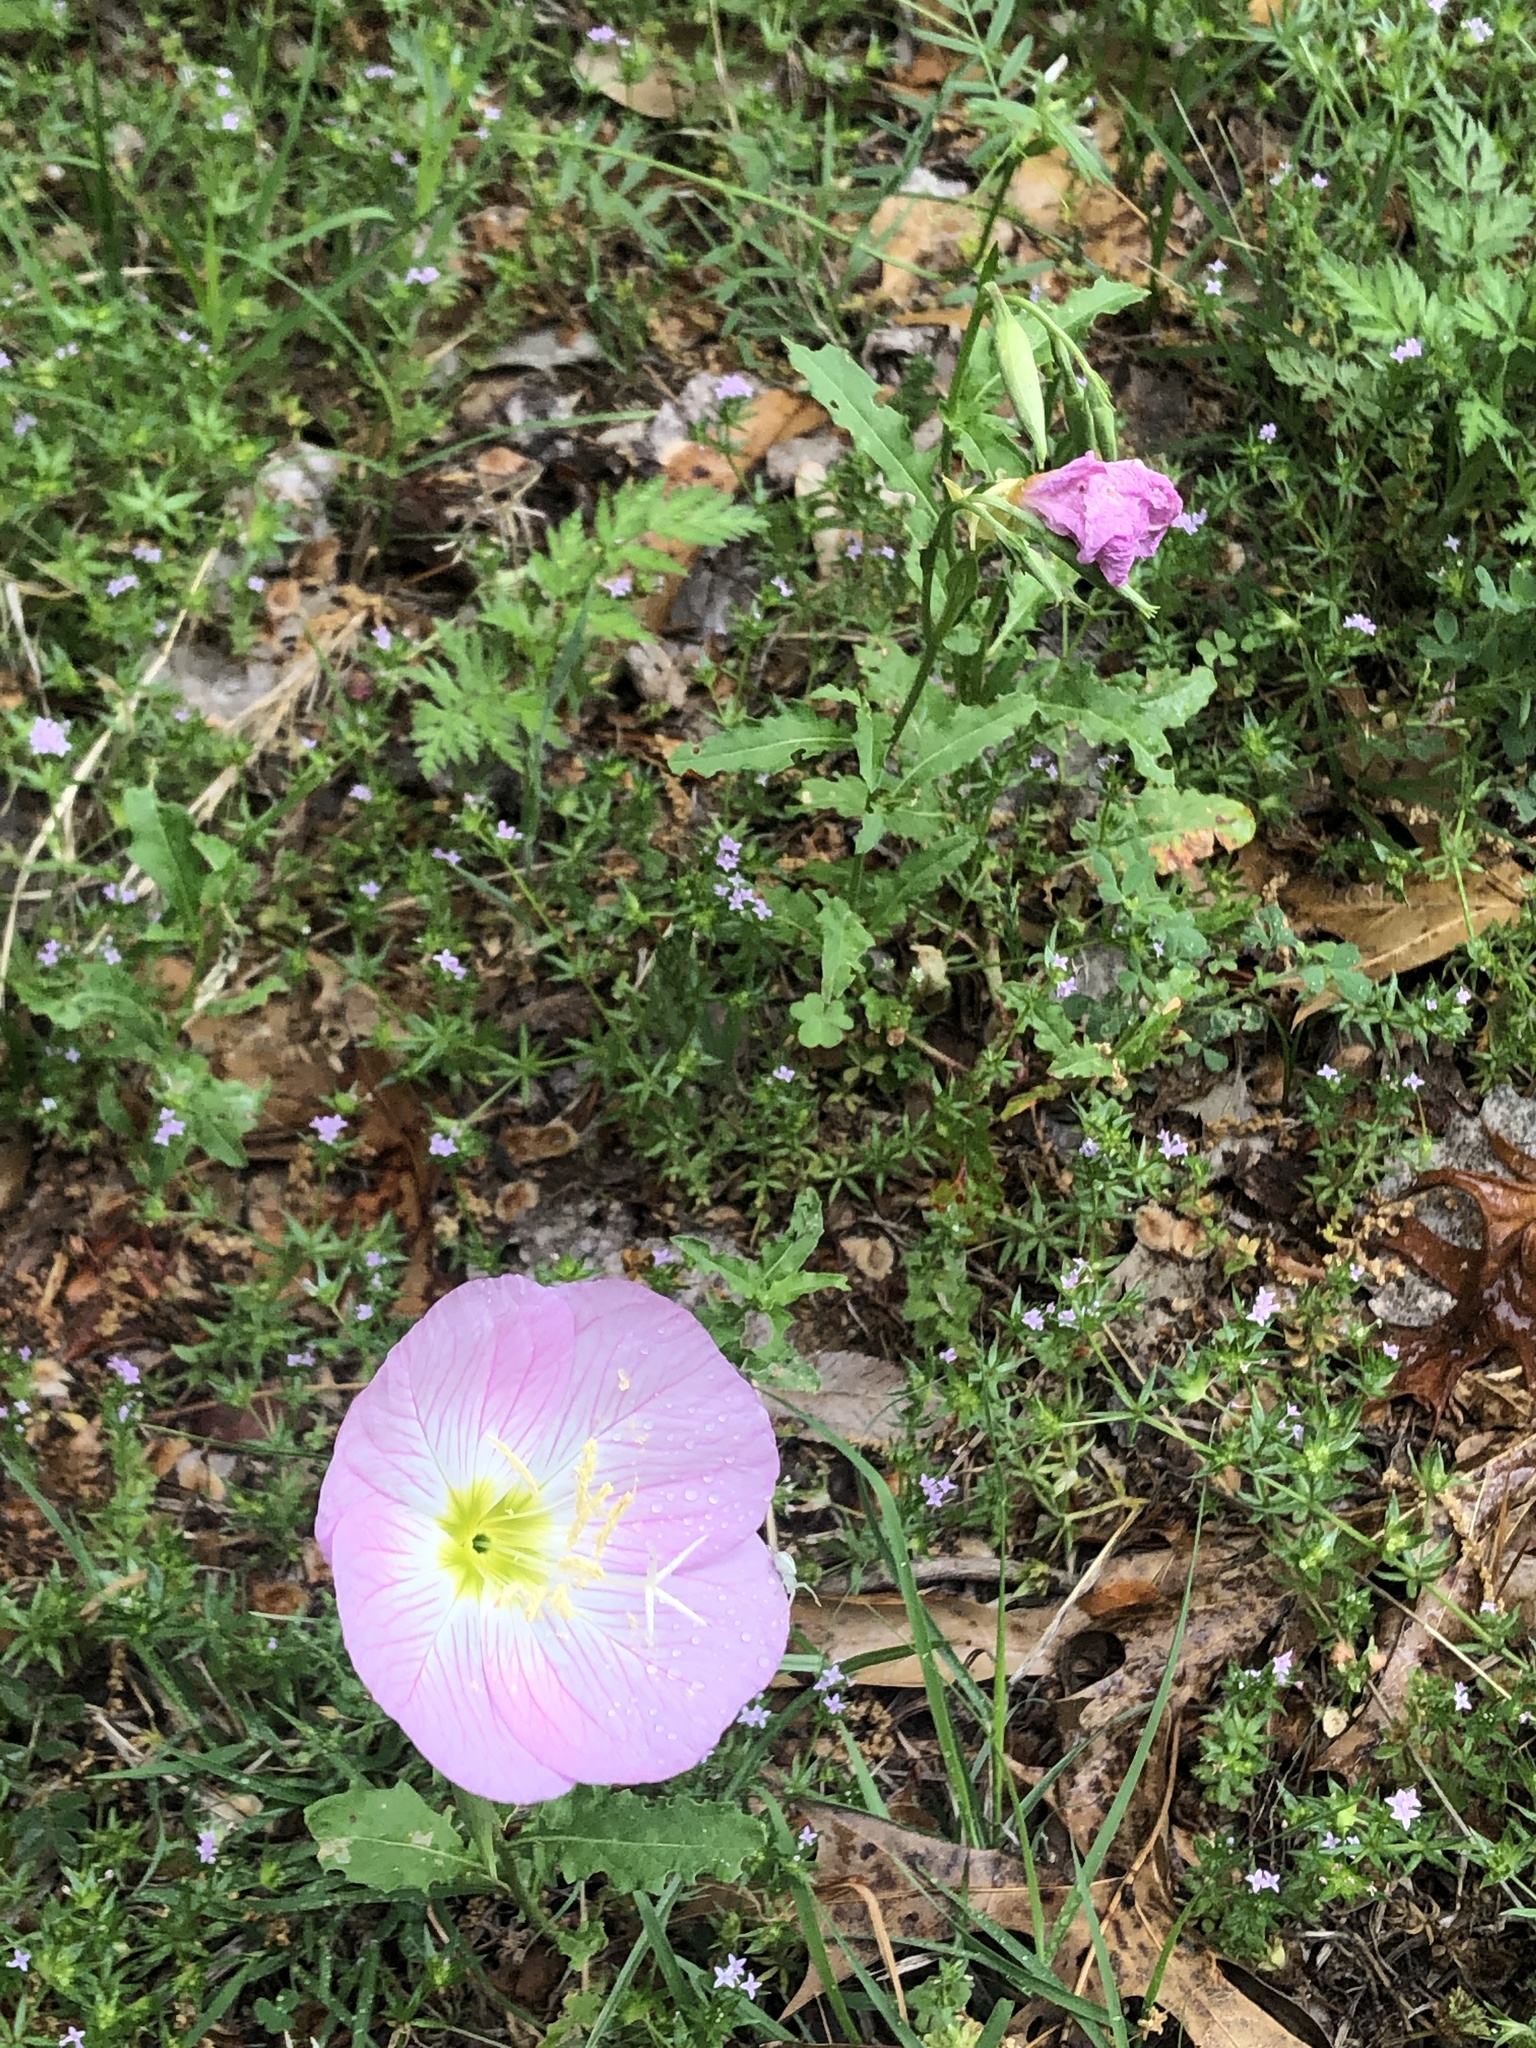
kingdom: Plantae
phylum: Tracheophyta
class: Magnoliopsida
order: Myrtales
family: Onagraceae
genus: Oenothera
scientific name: Oenothera speciosa
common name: White evening-primrose
